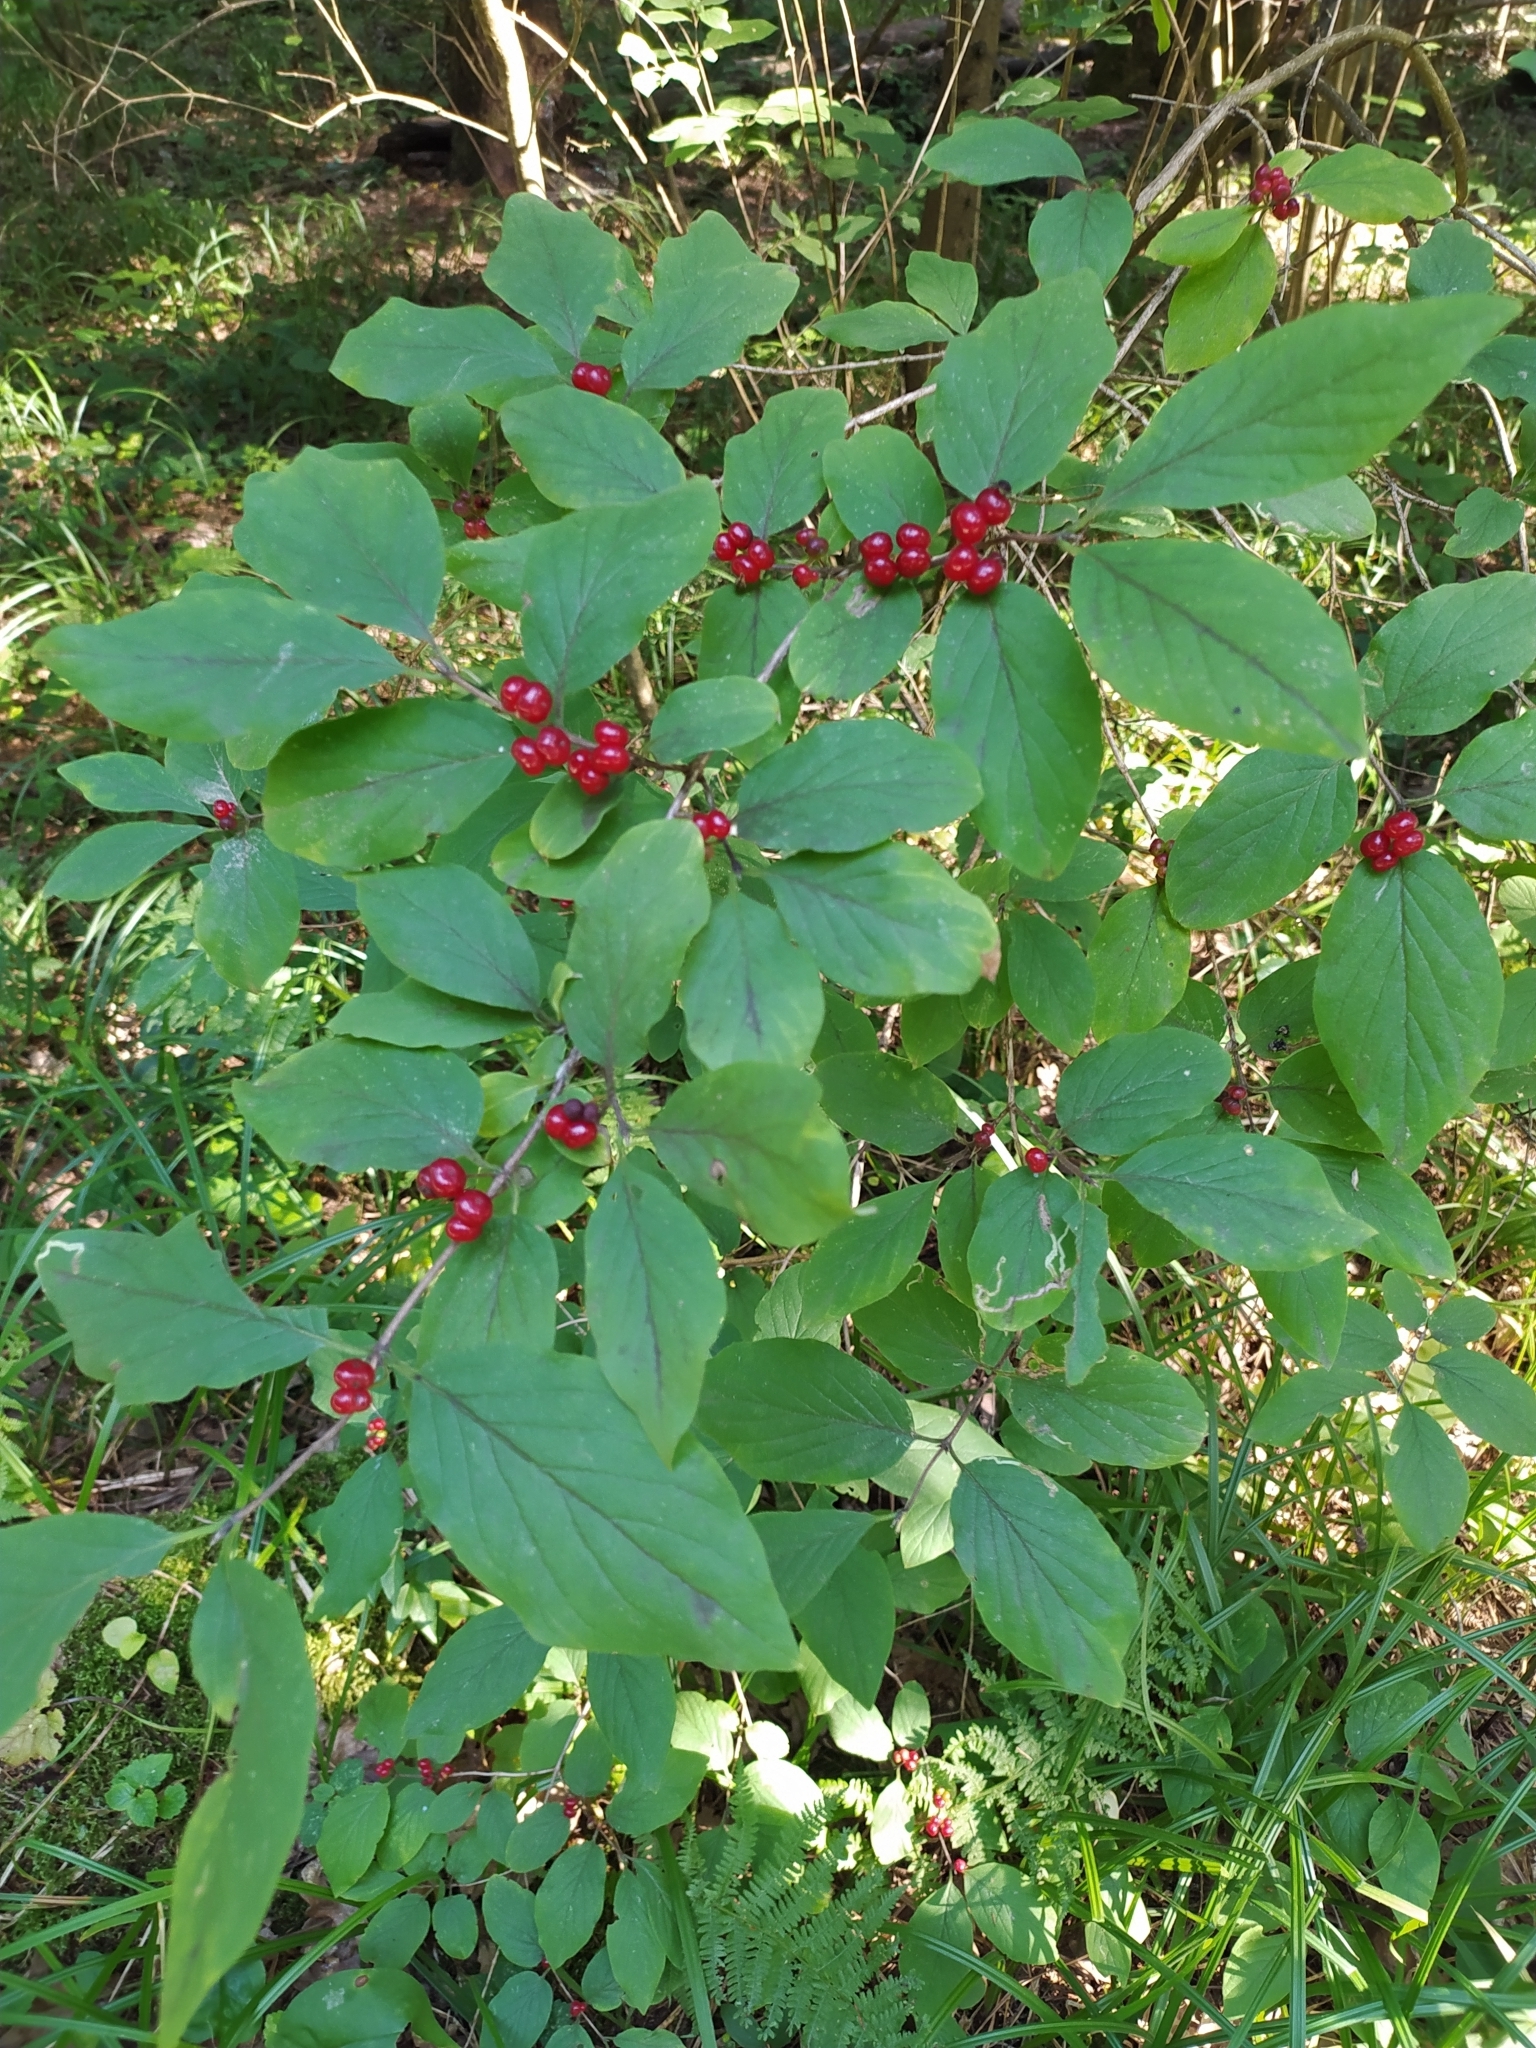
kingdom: Plantae
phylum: Tracheophyta
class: Magnoliopsida
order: Dipsacales
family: Caprifoliaceae
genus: Lonicera
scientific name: Lonicera xylosteum
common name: Fly honeysuckle
